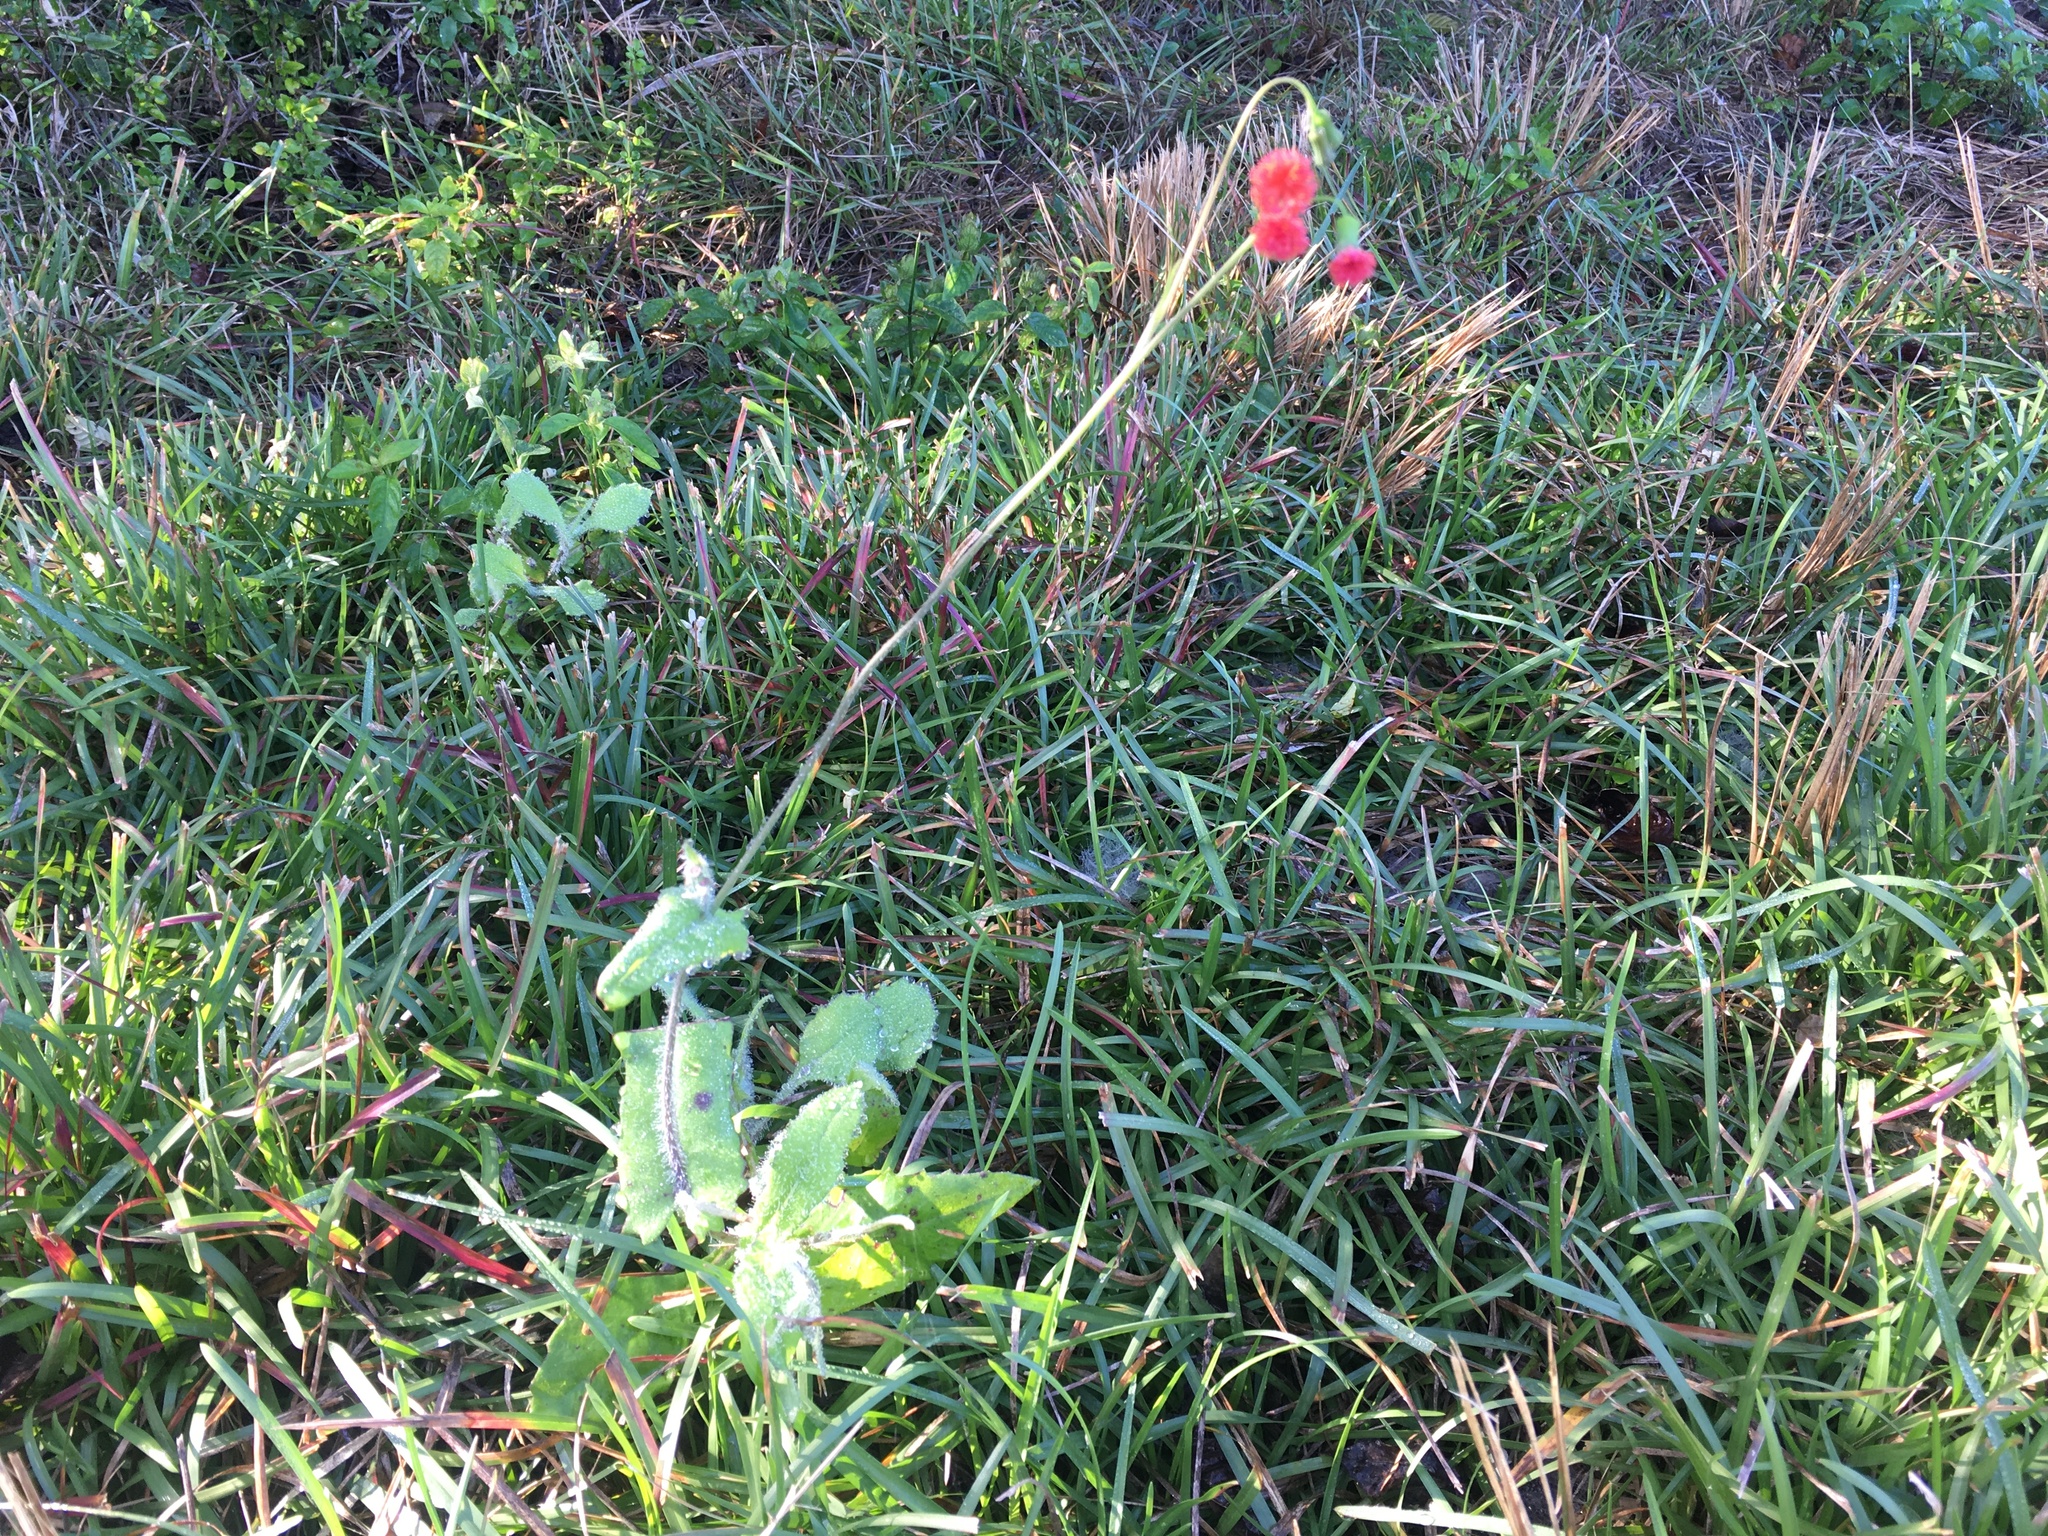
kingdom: Plantae
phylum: Tracheophyta
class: Magnoliopsida
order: Asterales
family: Asteraceae
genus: Emilia
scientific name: Emilia fosbergii
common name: Florida tasselflower
